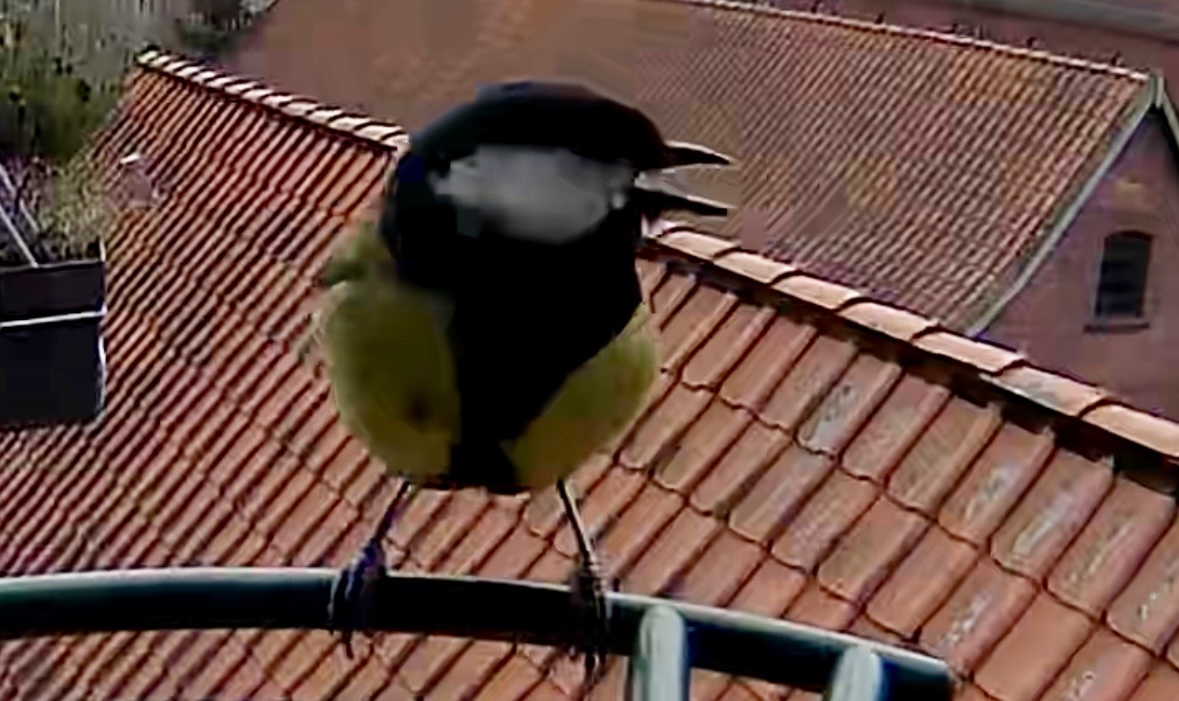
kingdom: Animalia
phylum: Chordata
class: Aves
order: Passeriformes
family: Paridae
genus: Parus
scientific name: Parus major
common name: Great tit
